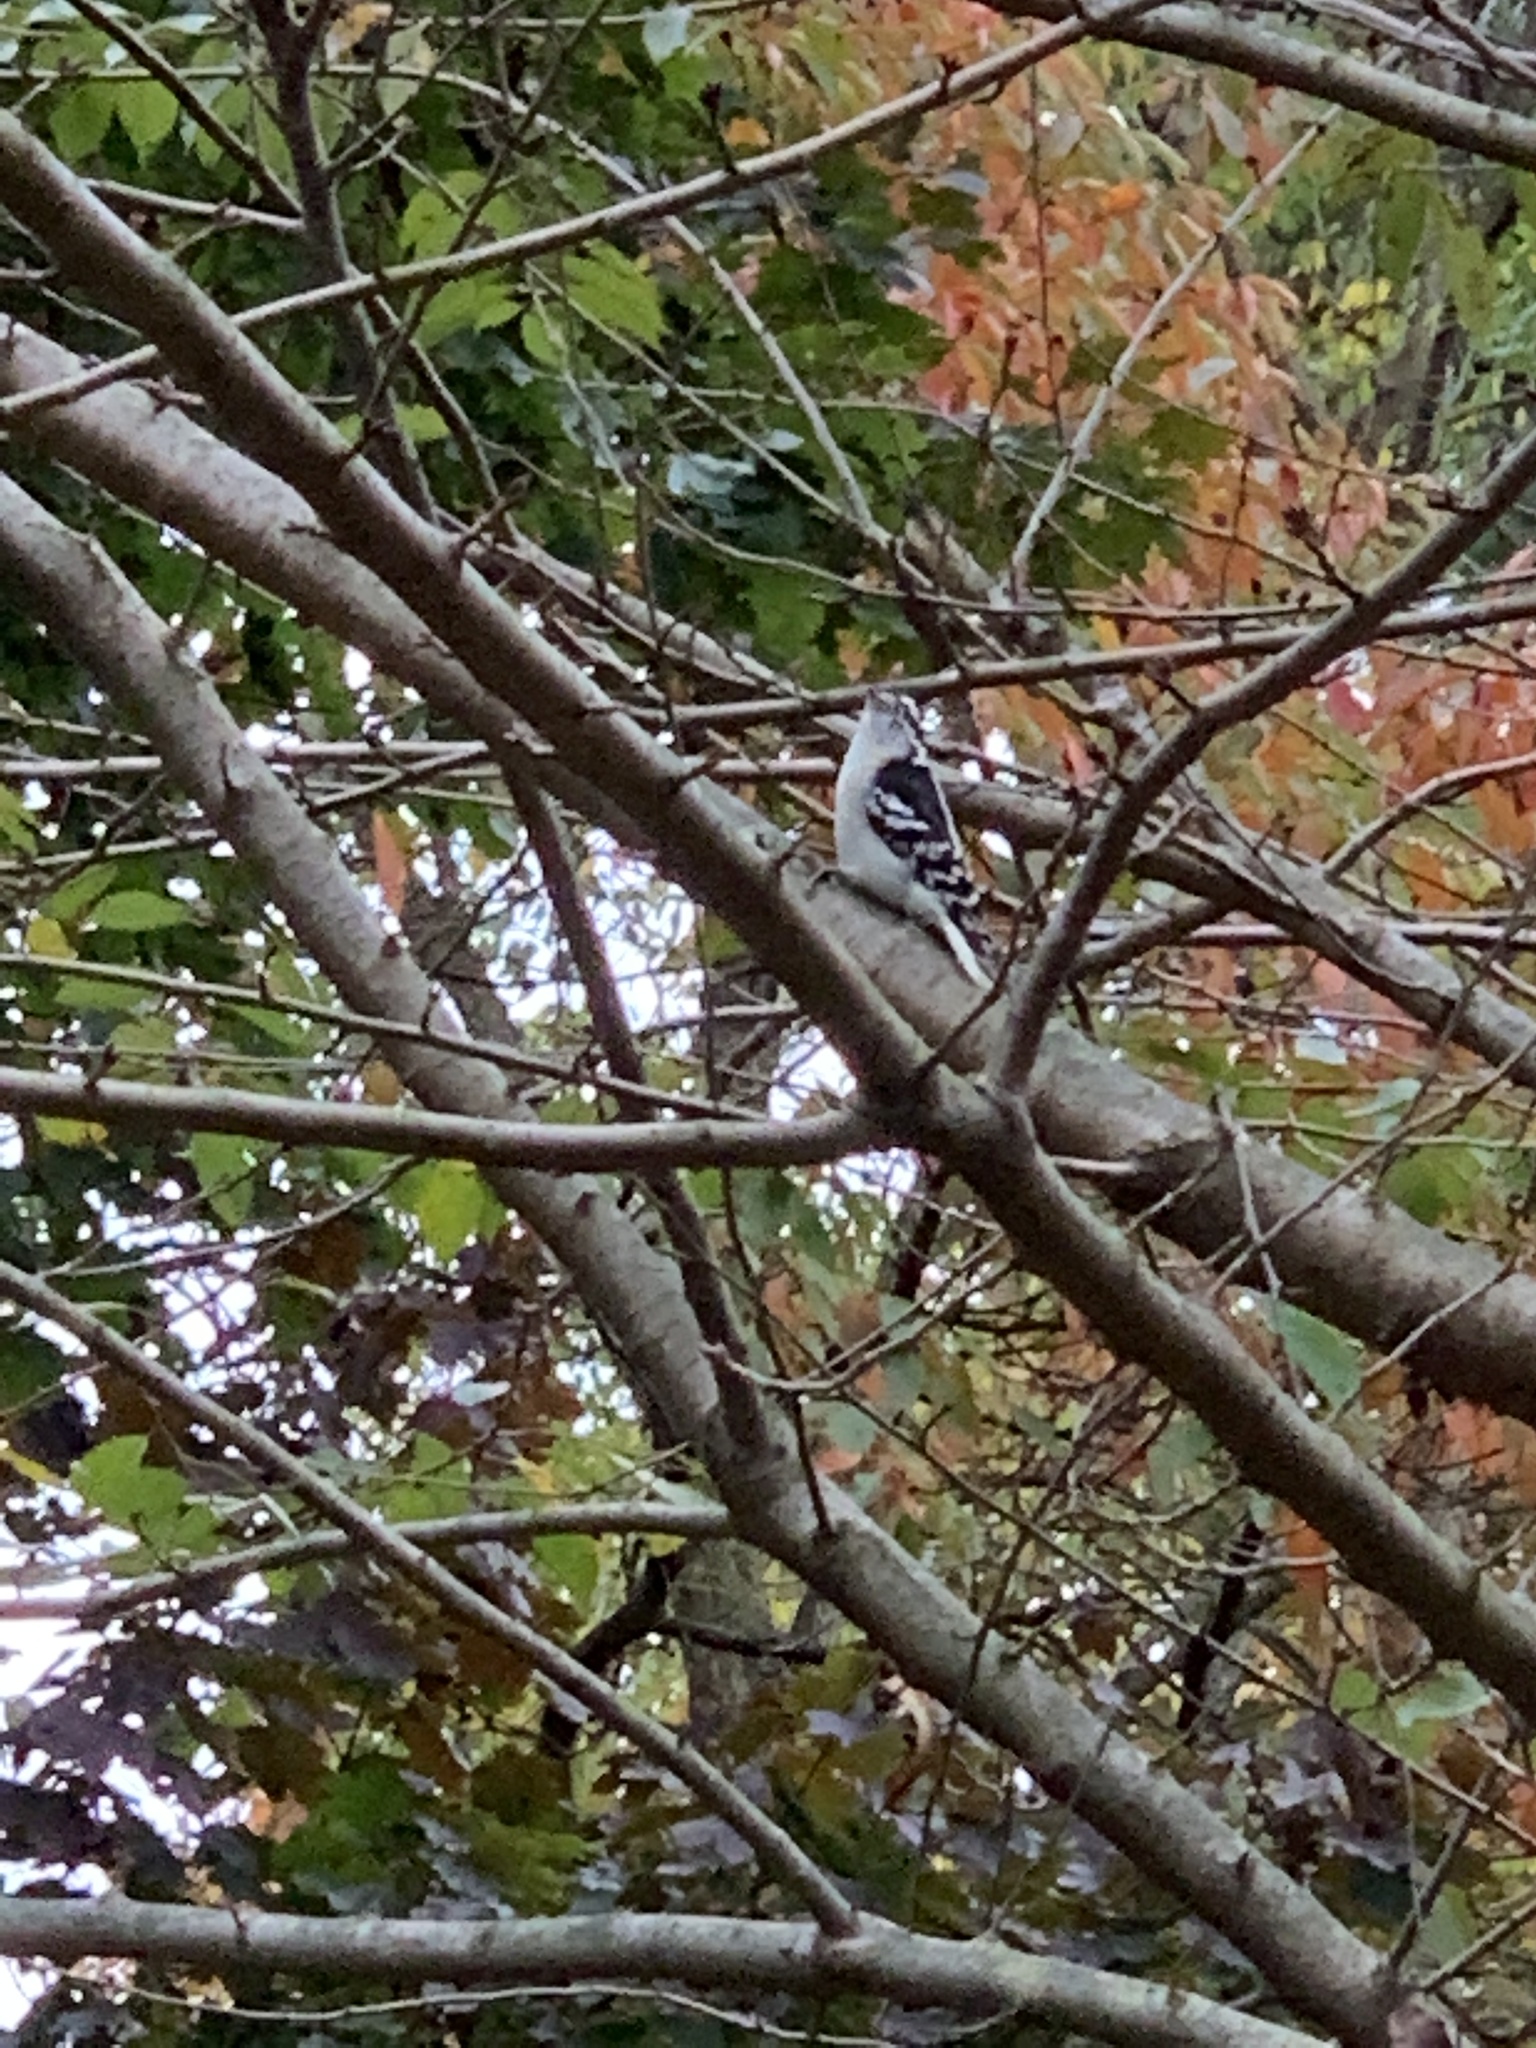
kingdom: Animalia
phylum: Chordata
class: Aves
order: Piciformes
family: Picidae
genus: Dryobates
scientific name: Dryobates pubescens
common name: Downy woodpecker
